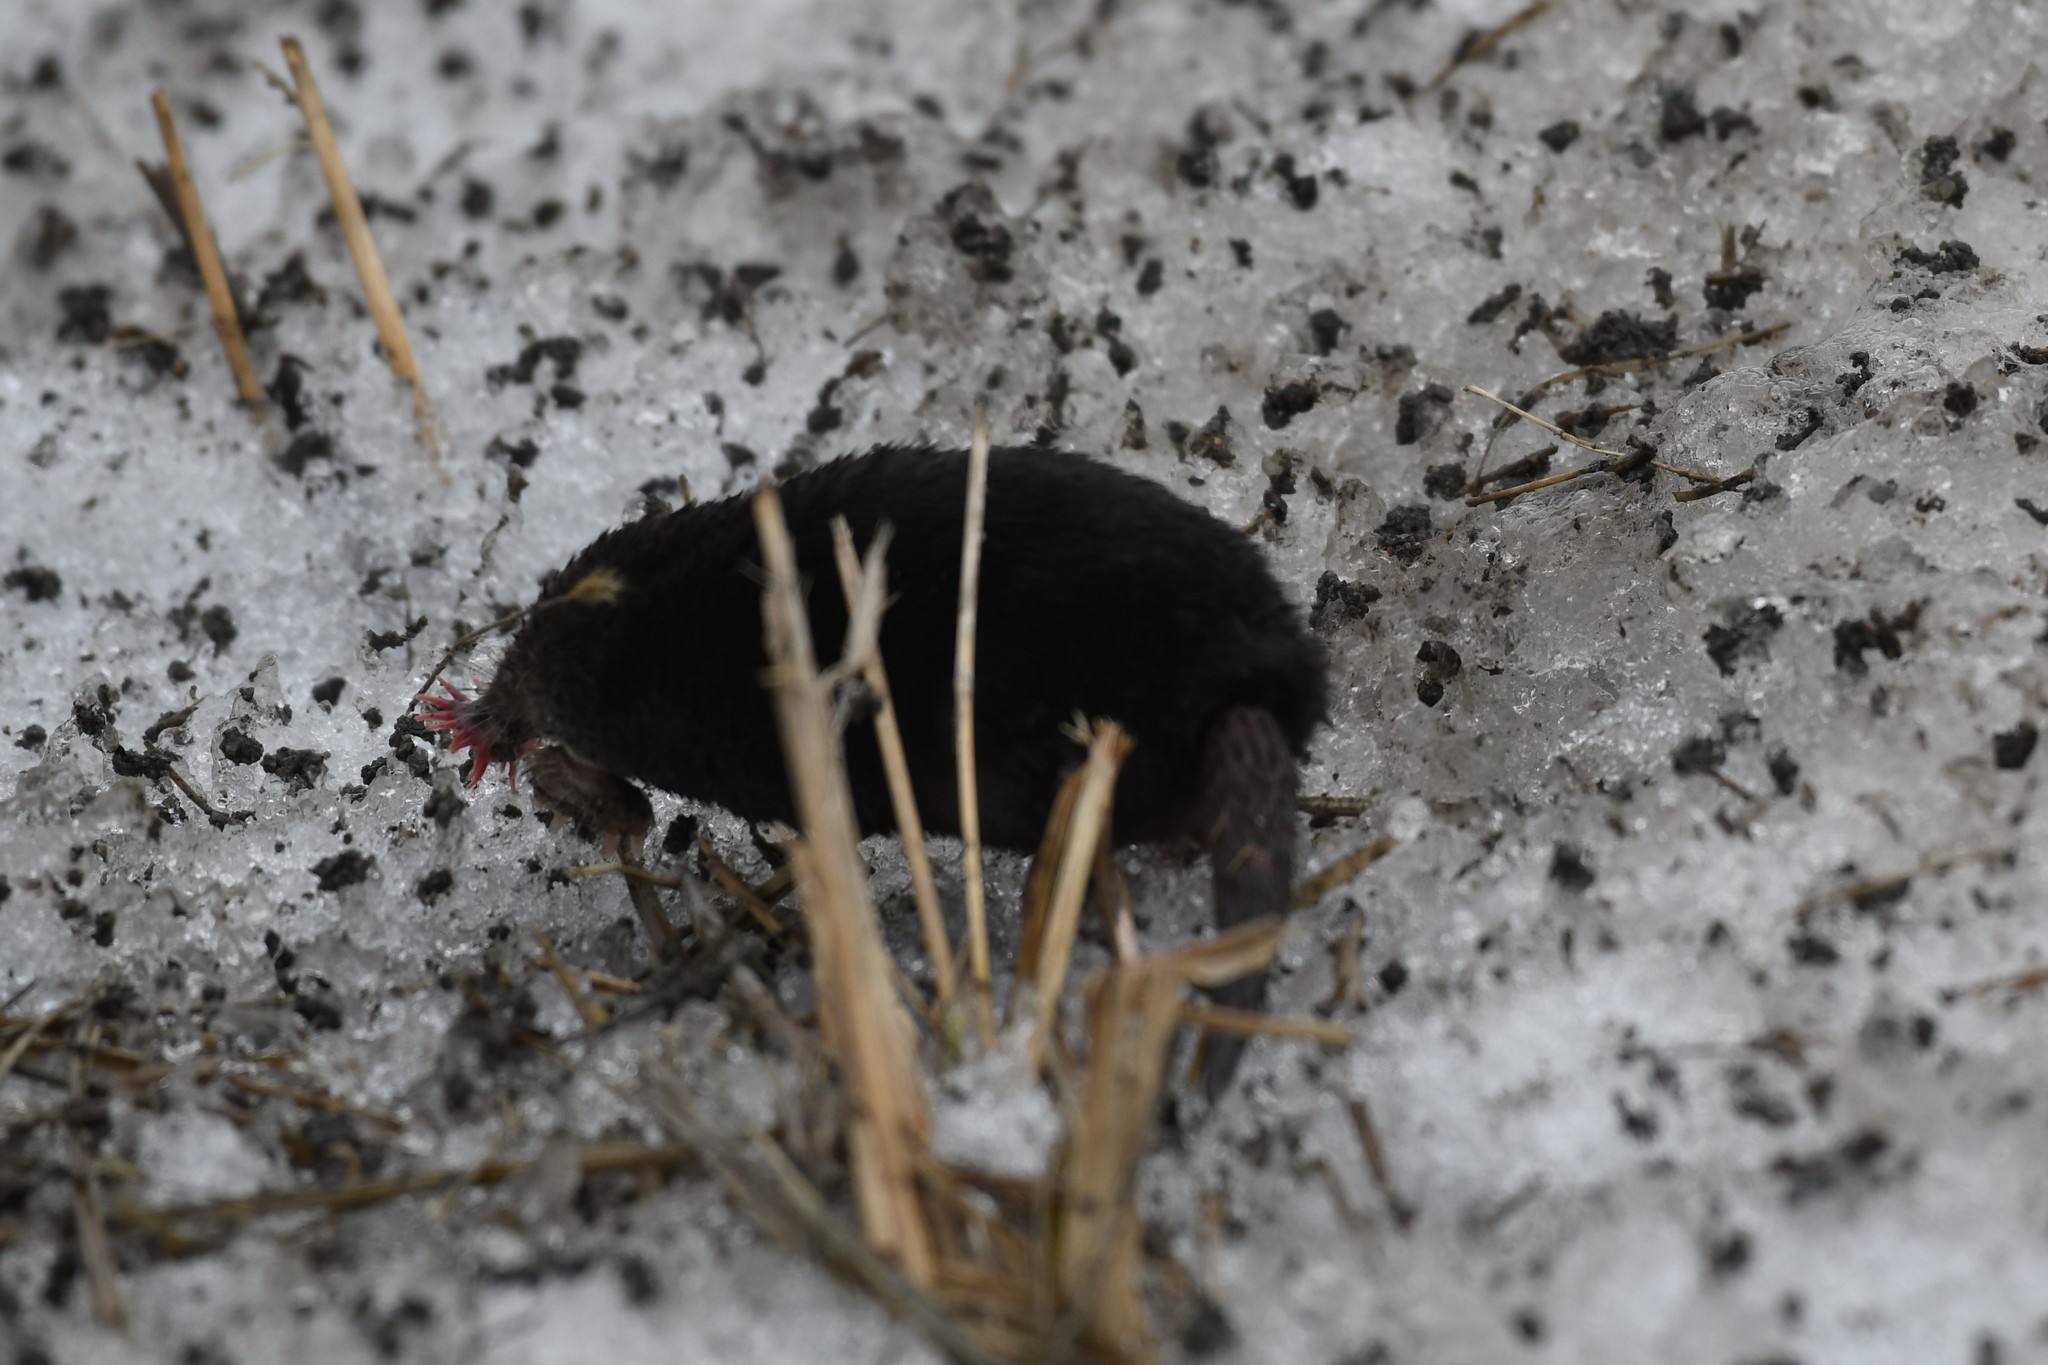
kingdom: Animalia
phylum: Chordata
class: Mammalia
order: Soricomorpha
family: Talpidae
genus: Condylura
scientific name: Condylura cristata
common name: Star-nosed mole
